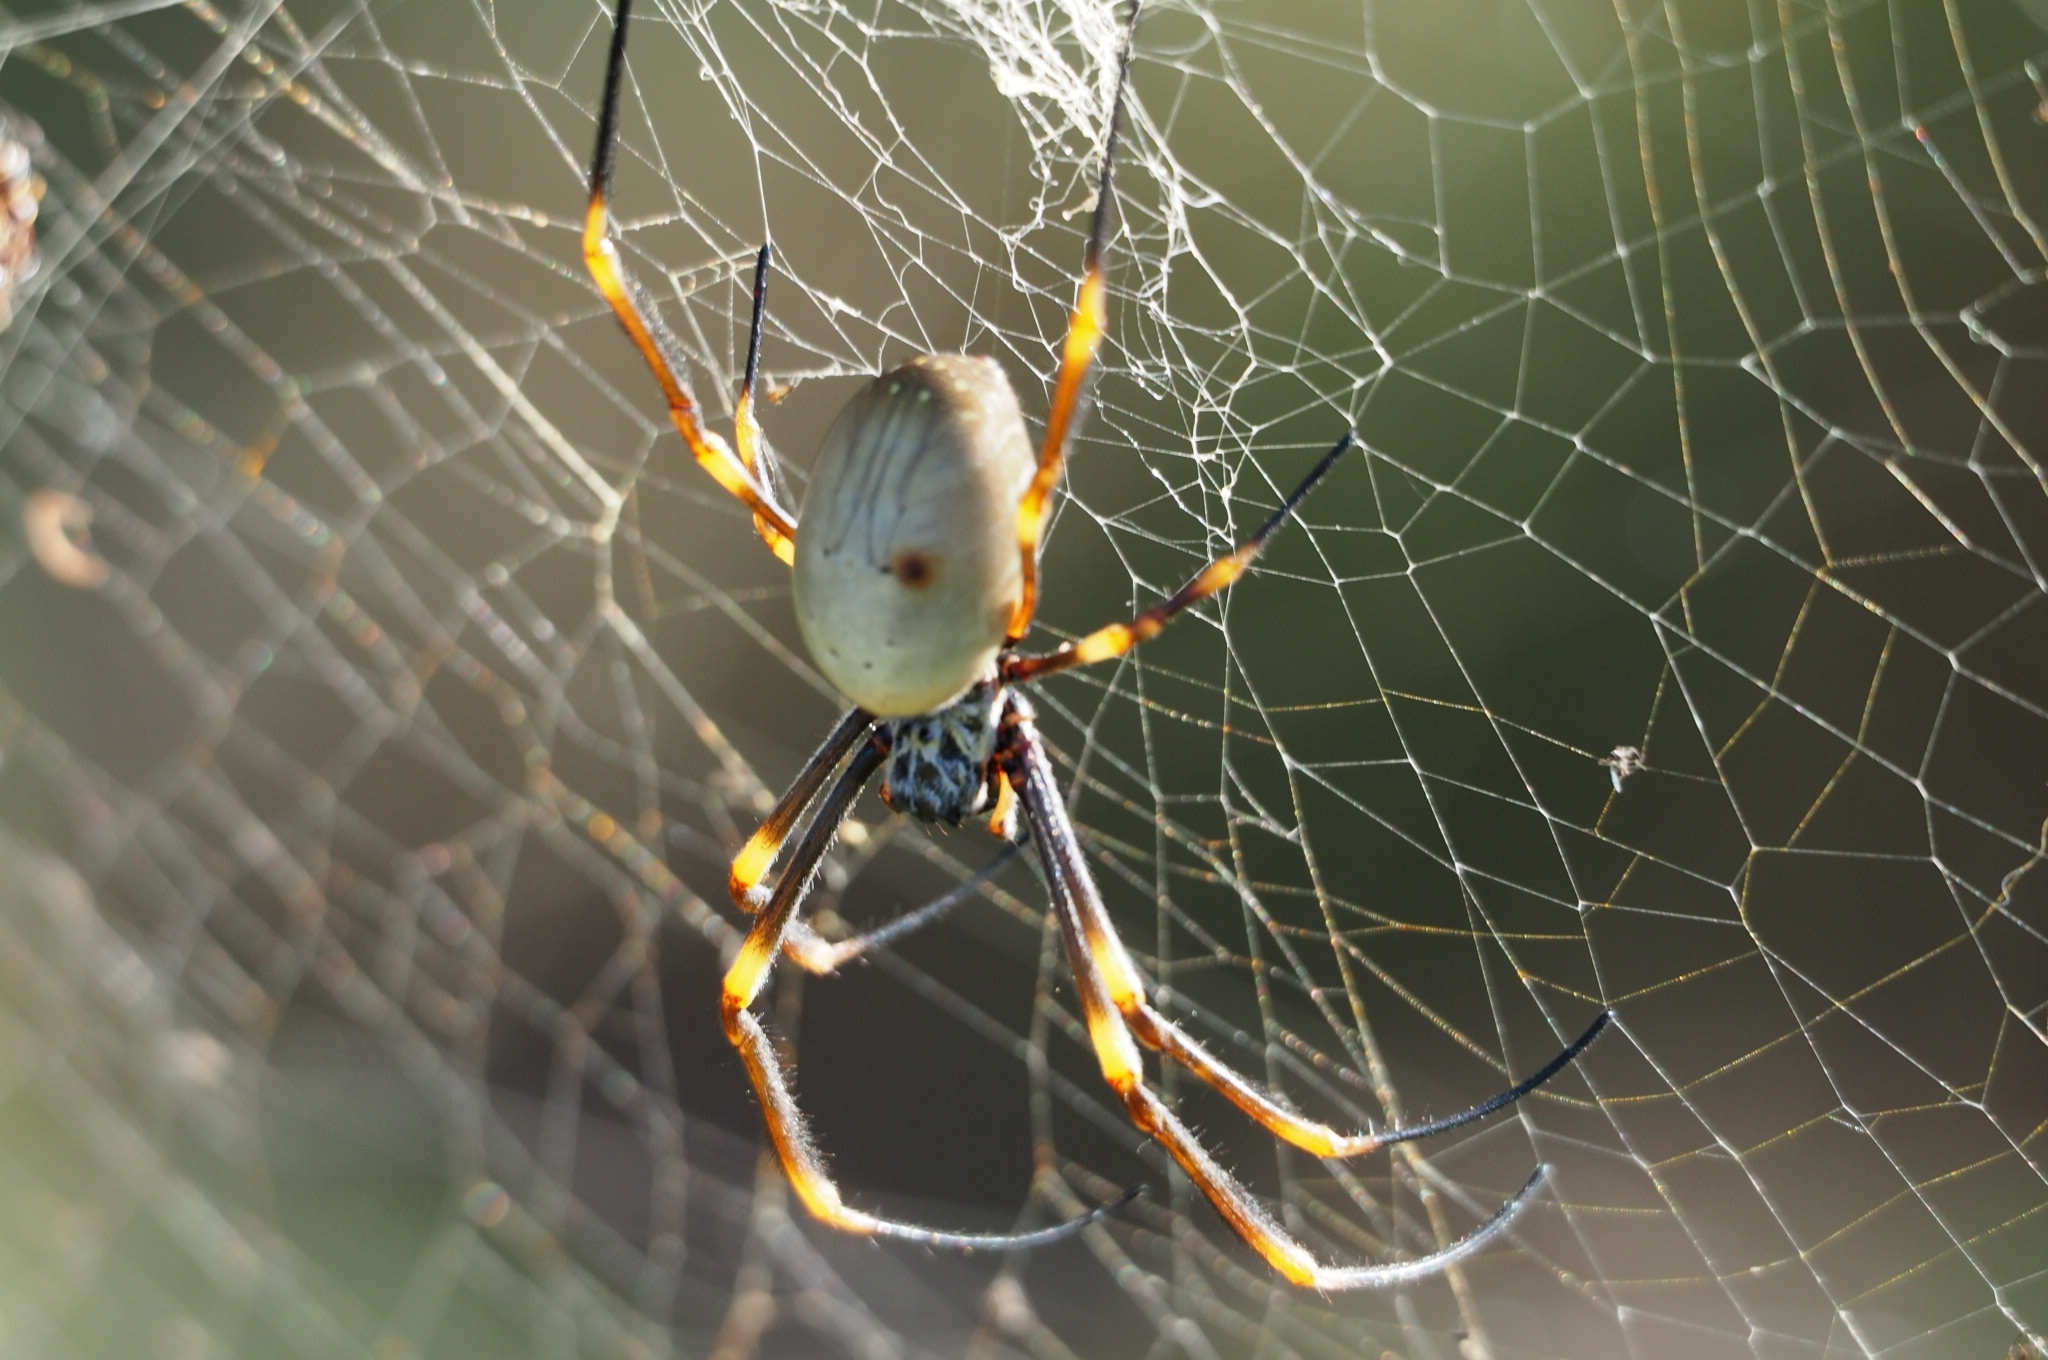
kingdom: Animalia
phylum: Arthropoda
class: Arachnida
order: Araneae
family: Araneidae
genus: Trichonephila
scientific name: Trichonephila plumipes
